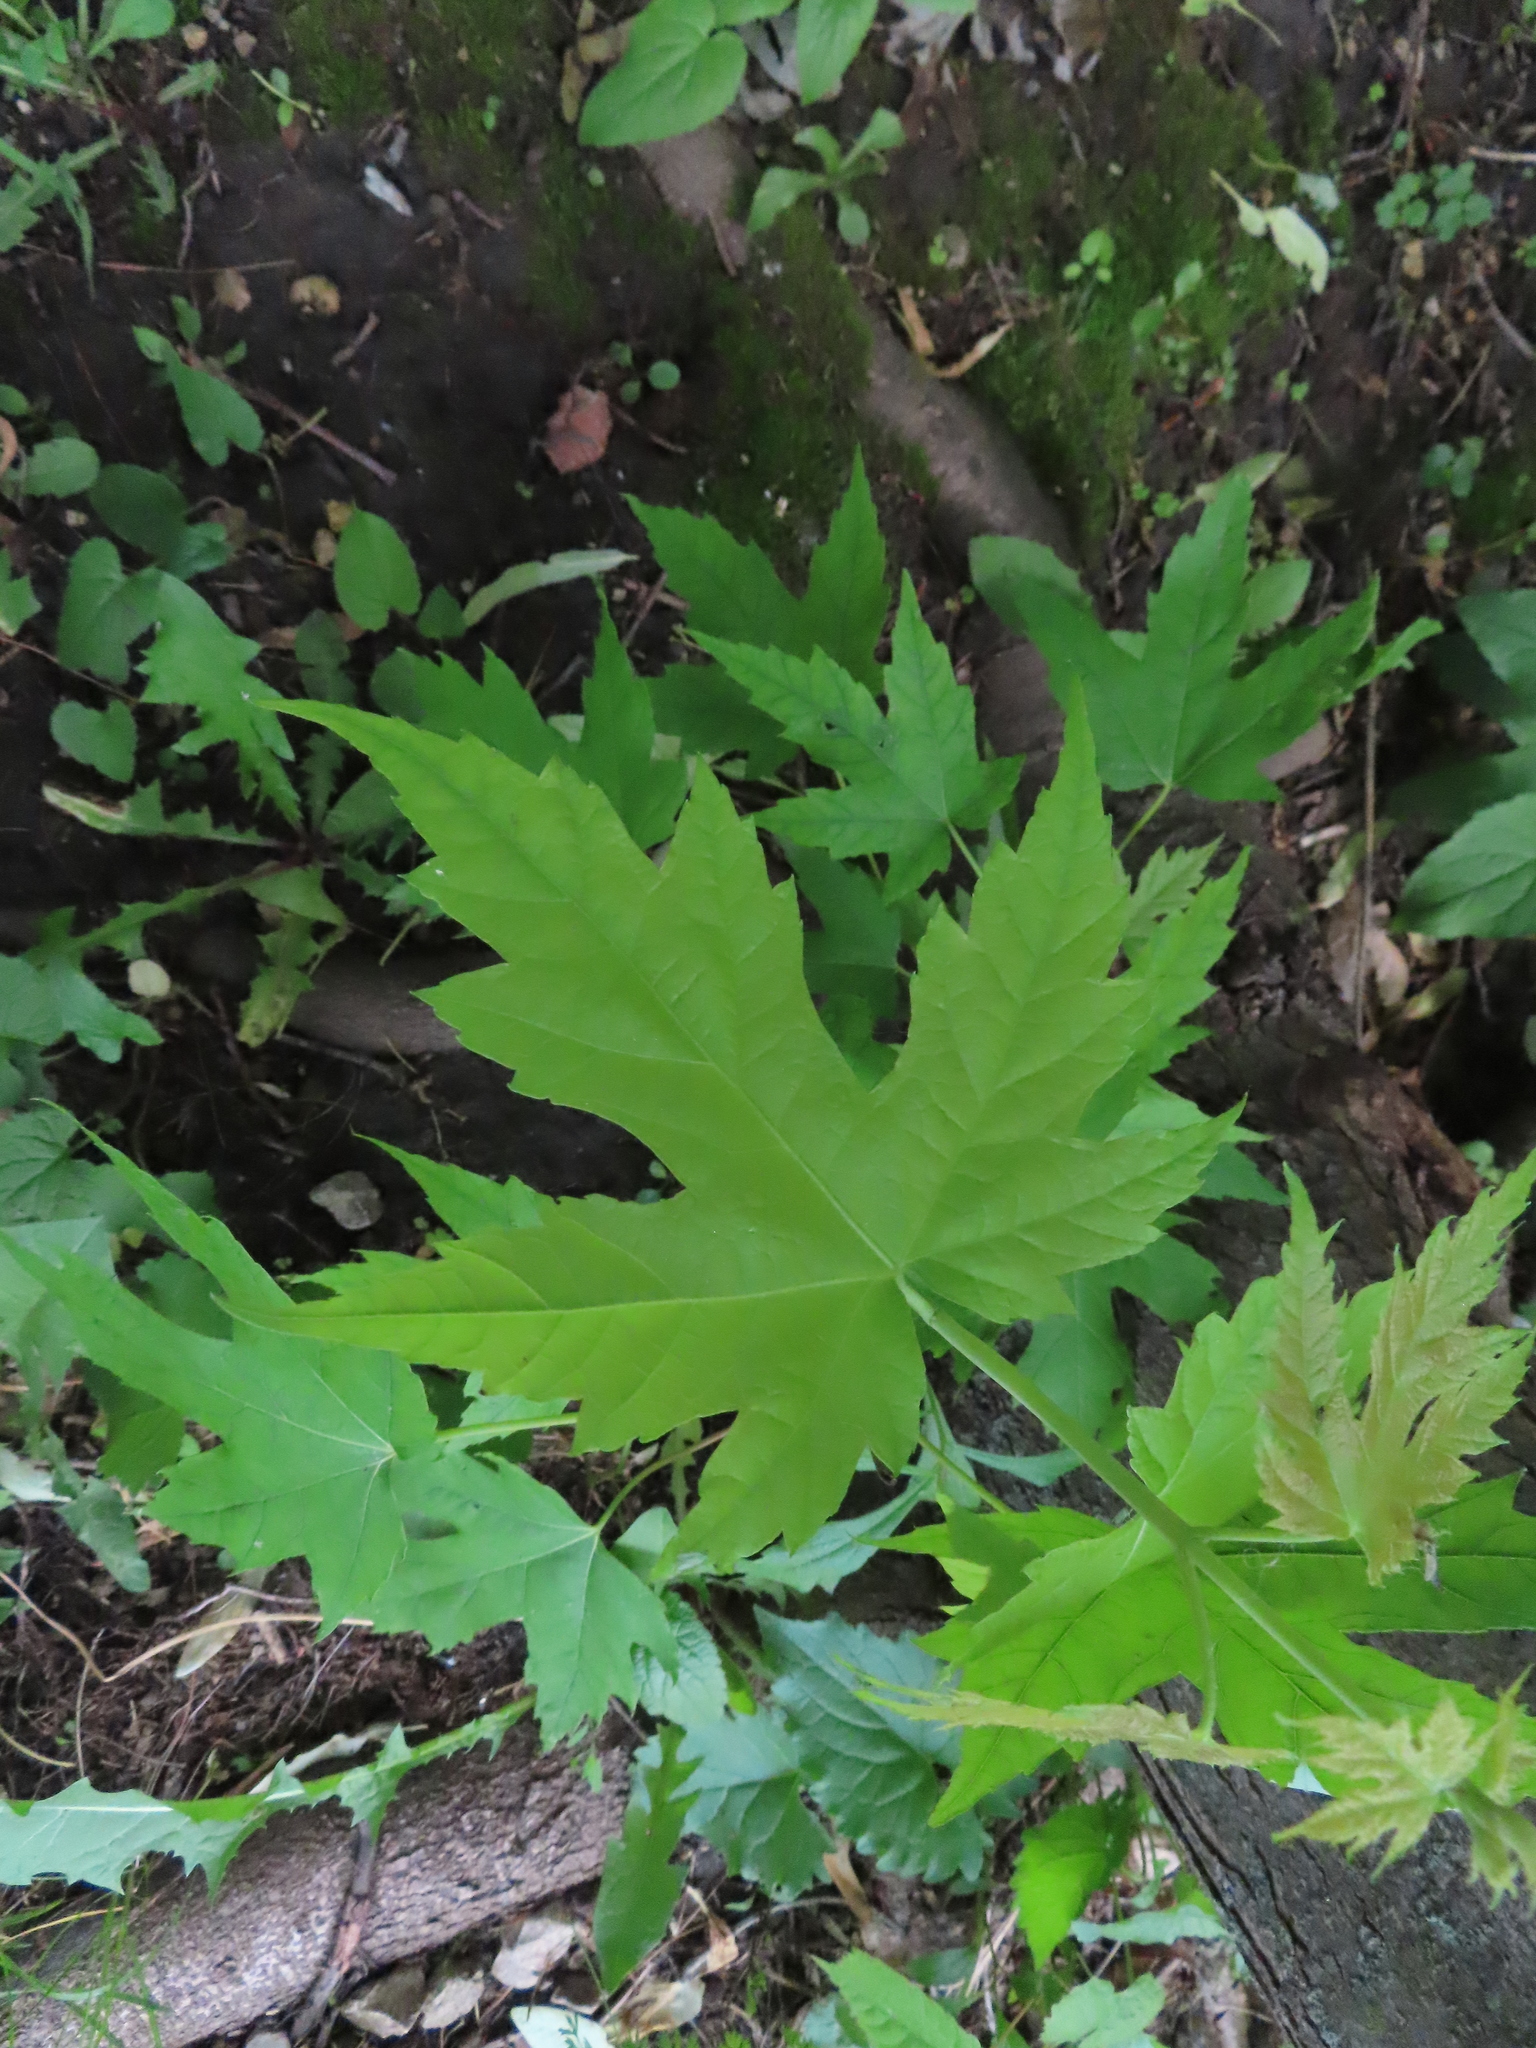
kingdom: Plantae
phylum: Tracheophyta
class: Magnoliopsida
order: Sapindales
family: Sapindaceae
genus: Acer
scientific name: Acer saccharinum
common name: Silver maple
